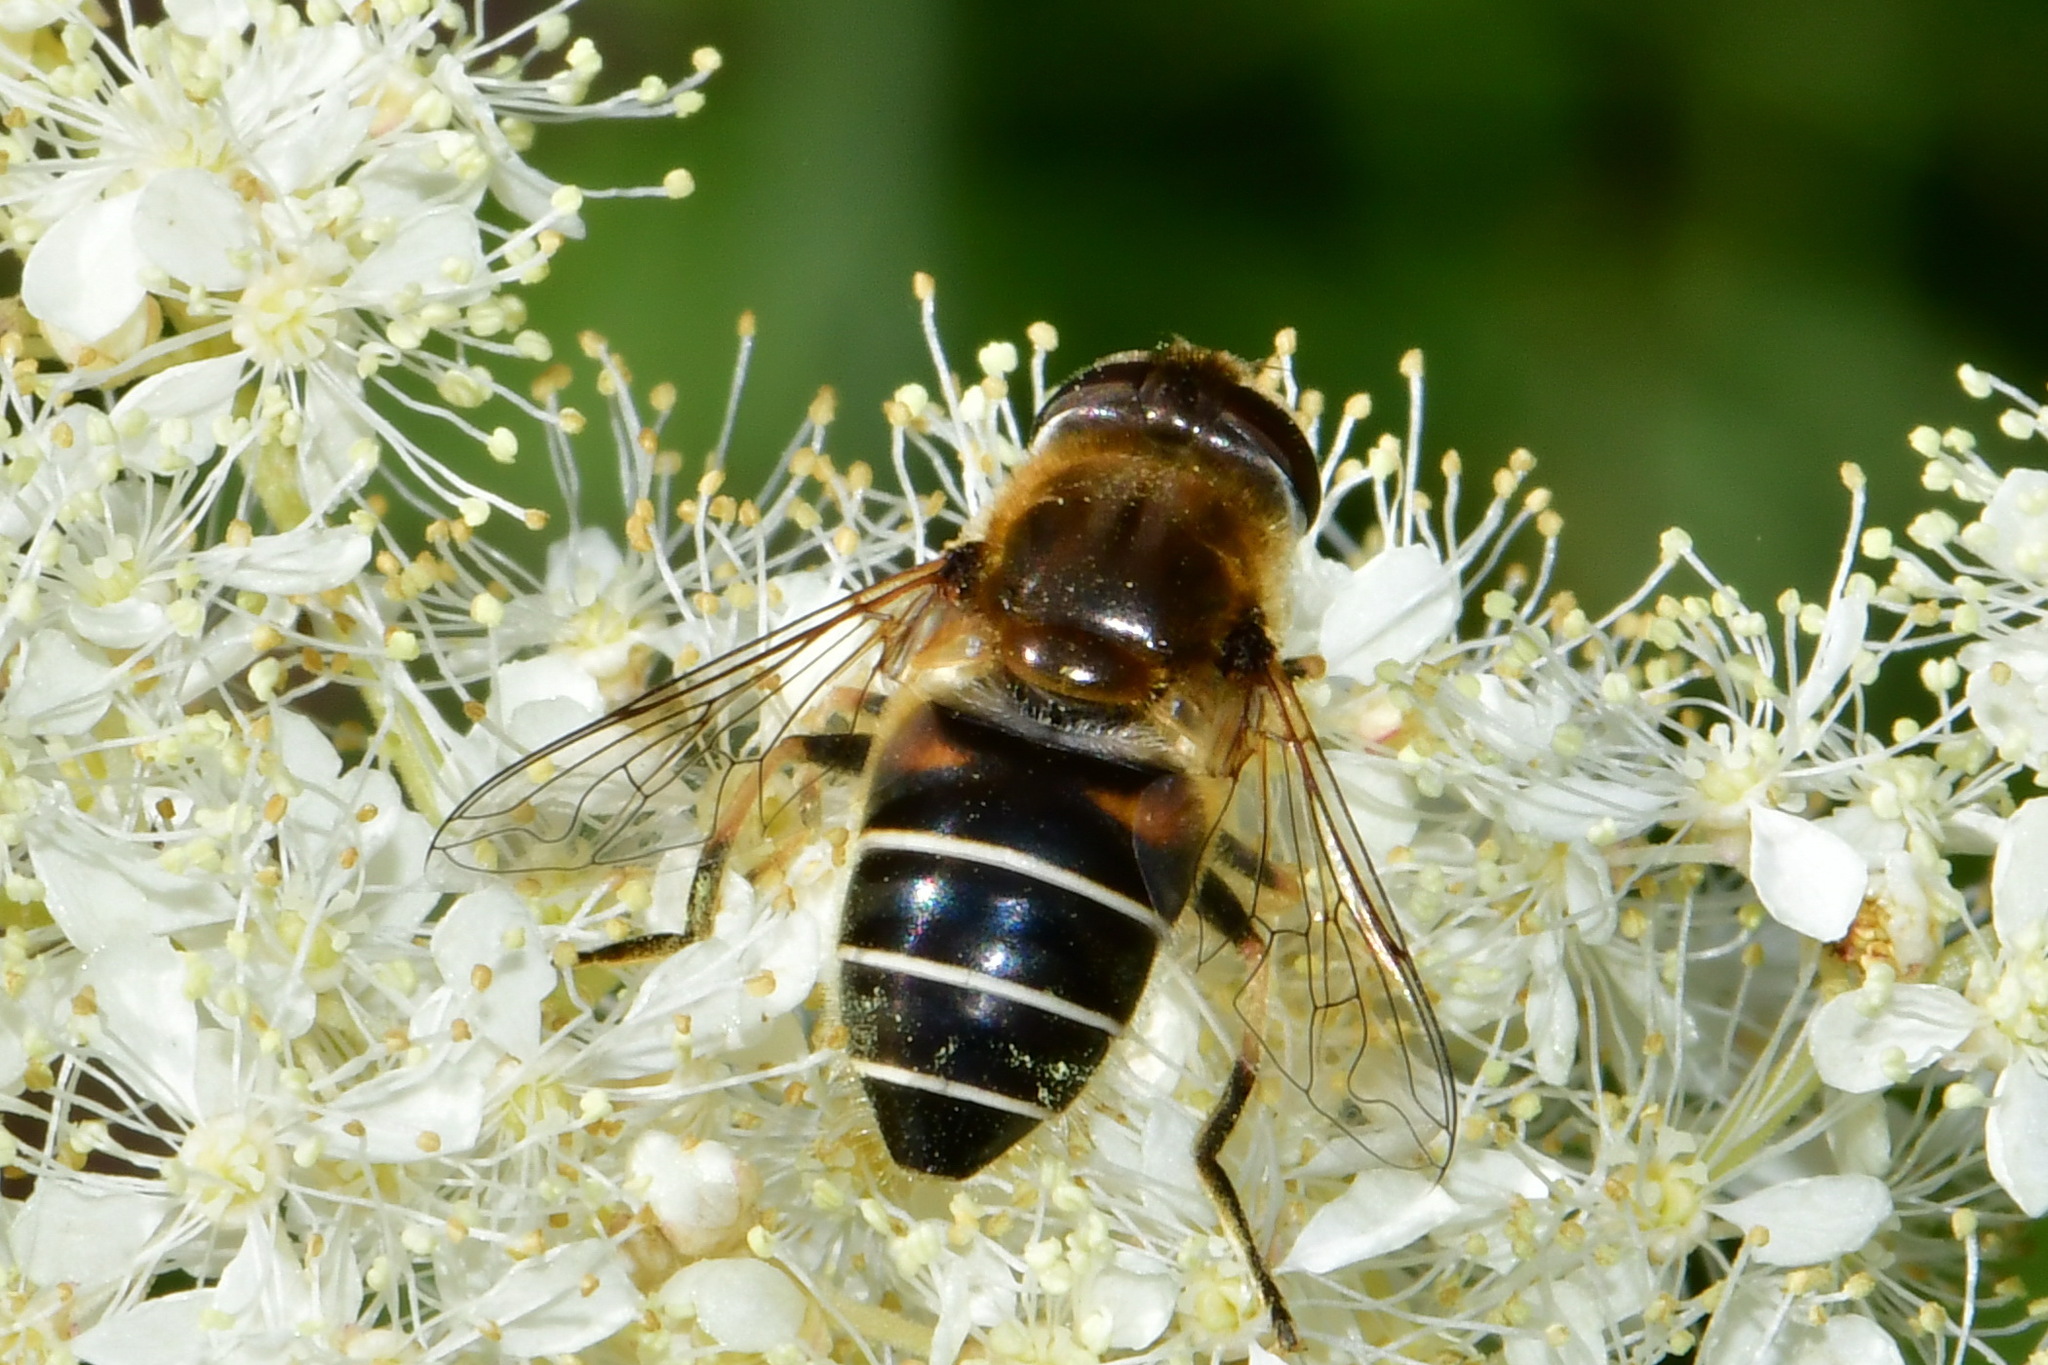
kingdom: Animalia
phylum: Arthropoda
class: Insecta
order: Diptera
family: Syrphidae
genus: Eristalis
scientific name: Eristalis nemorum
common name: Orange-spined drone fly
